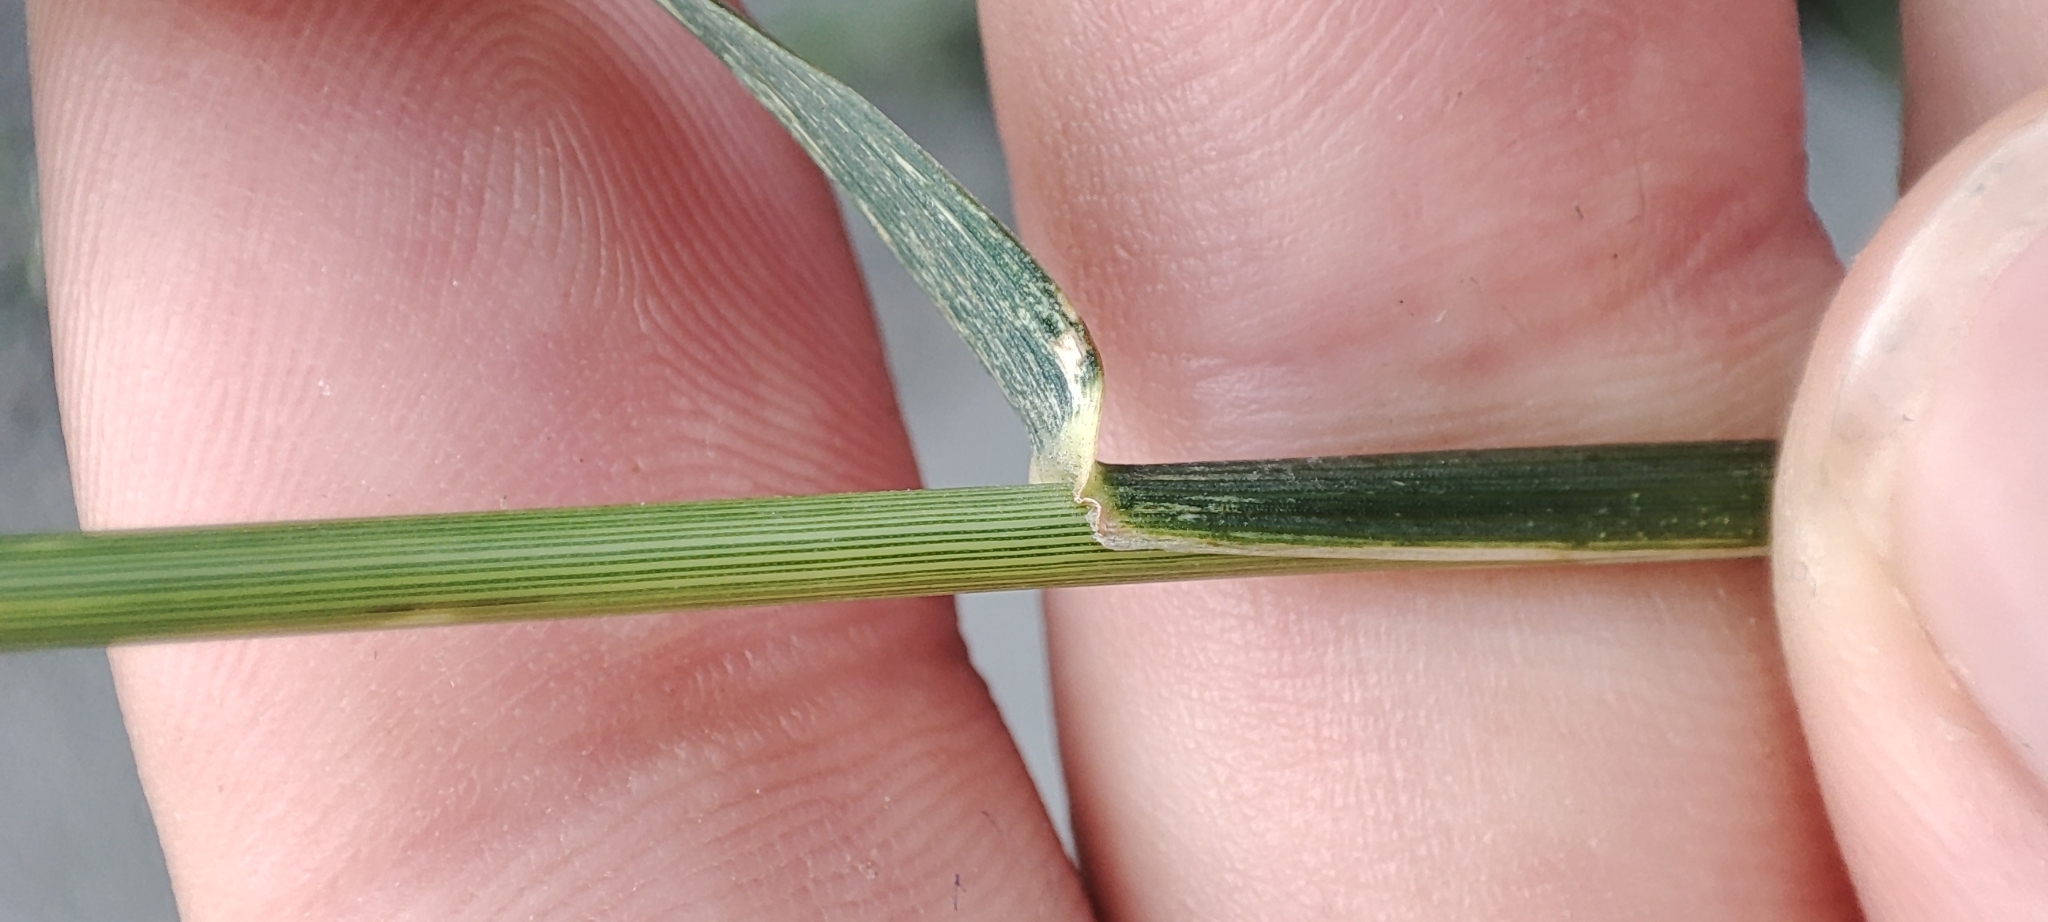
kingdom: Plantae
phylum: Tracheophyta
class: Liliopsida
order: Poales
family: Poaceae
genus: Elymus
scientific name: Elymus repens
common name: Quackgrass
